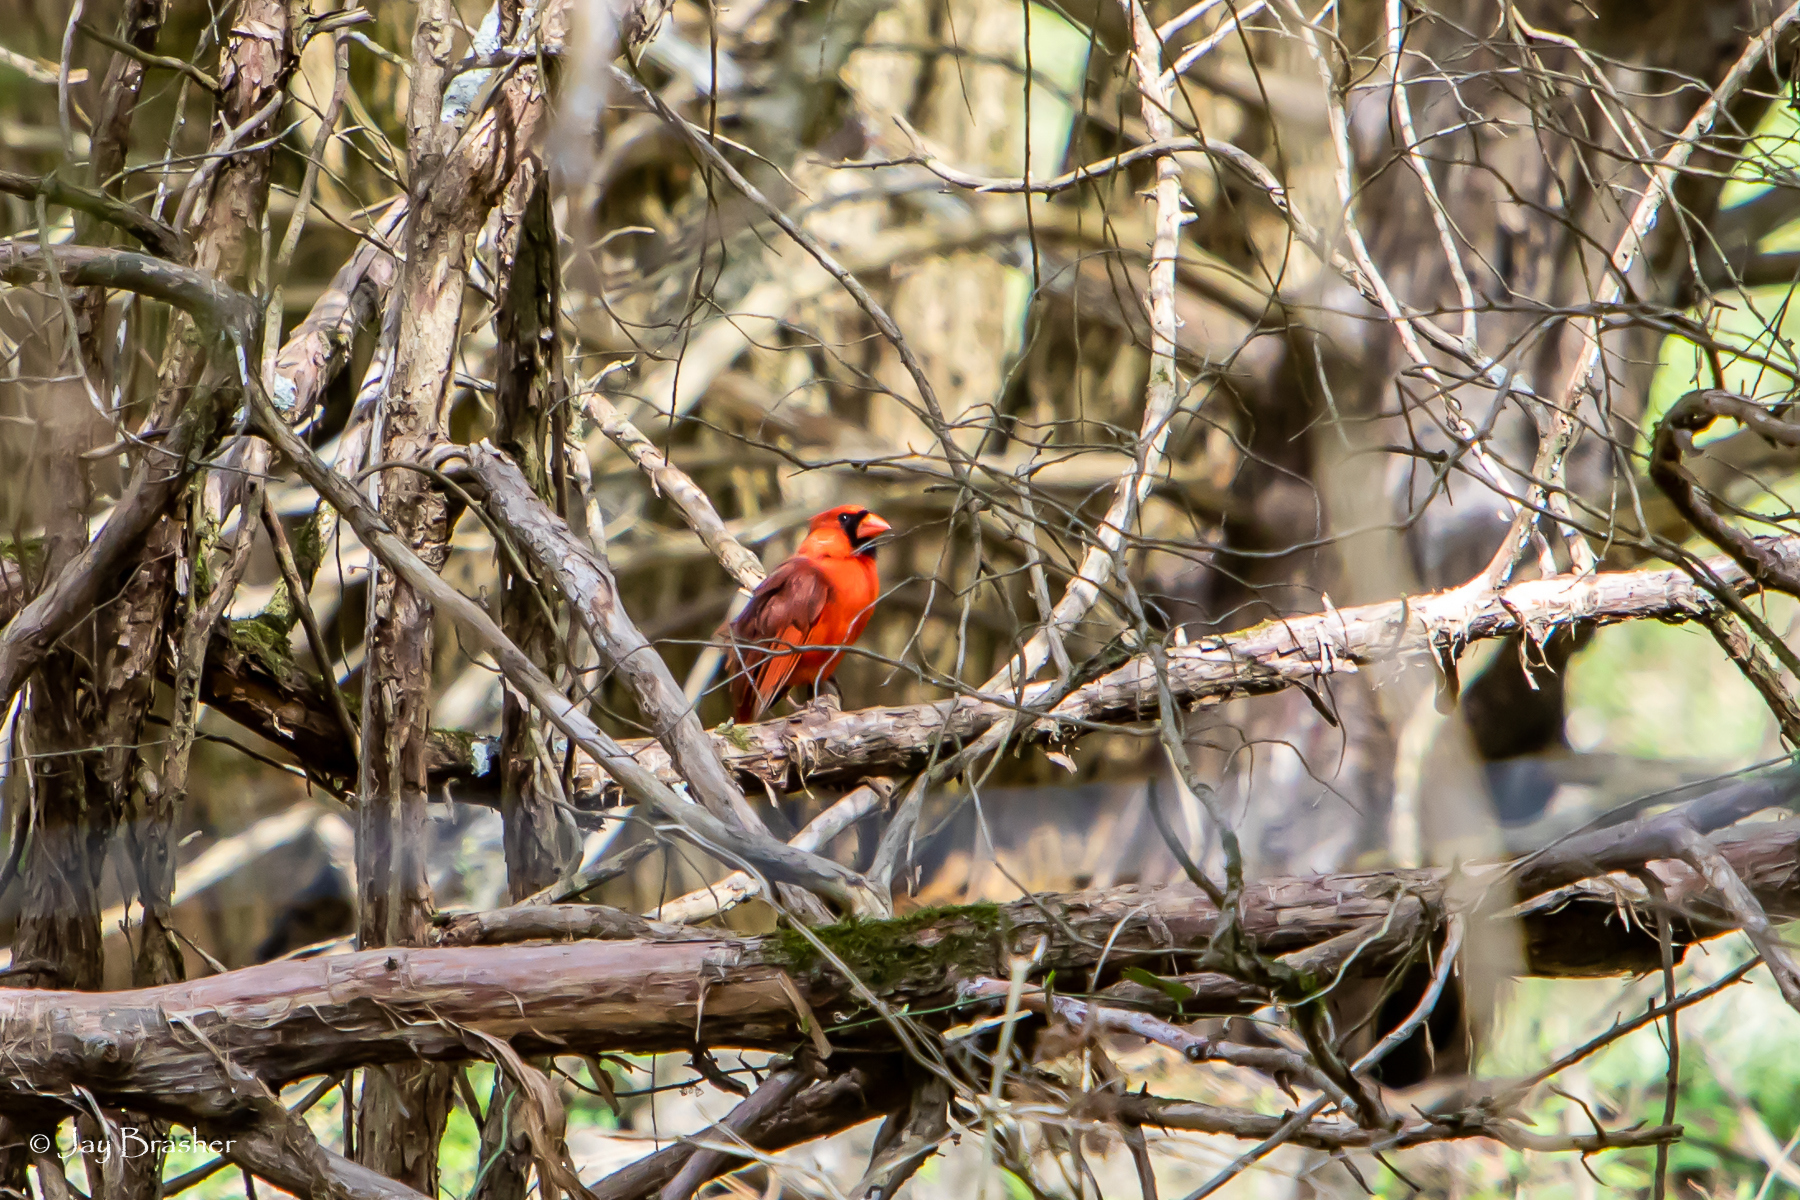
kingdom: Animalia
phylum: Chordata
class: Aves
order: Passeriformes
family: Cardinalidae
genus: Cardinalis
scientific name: Cardinalis cardinalis
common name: Northern cardinal
